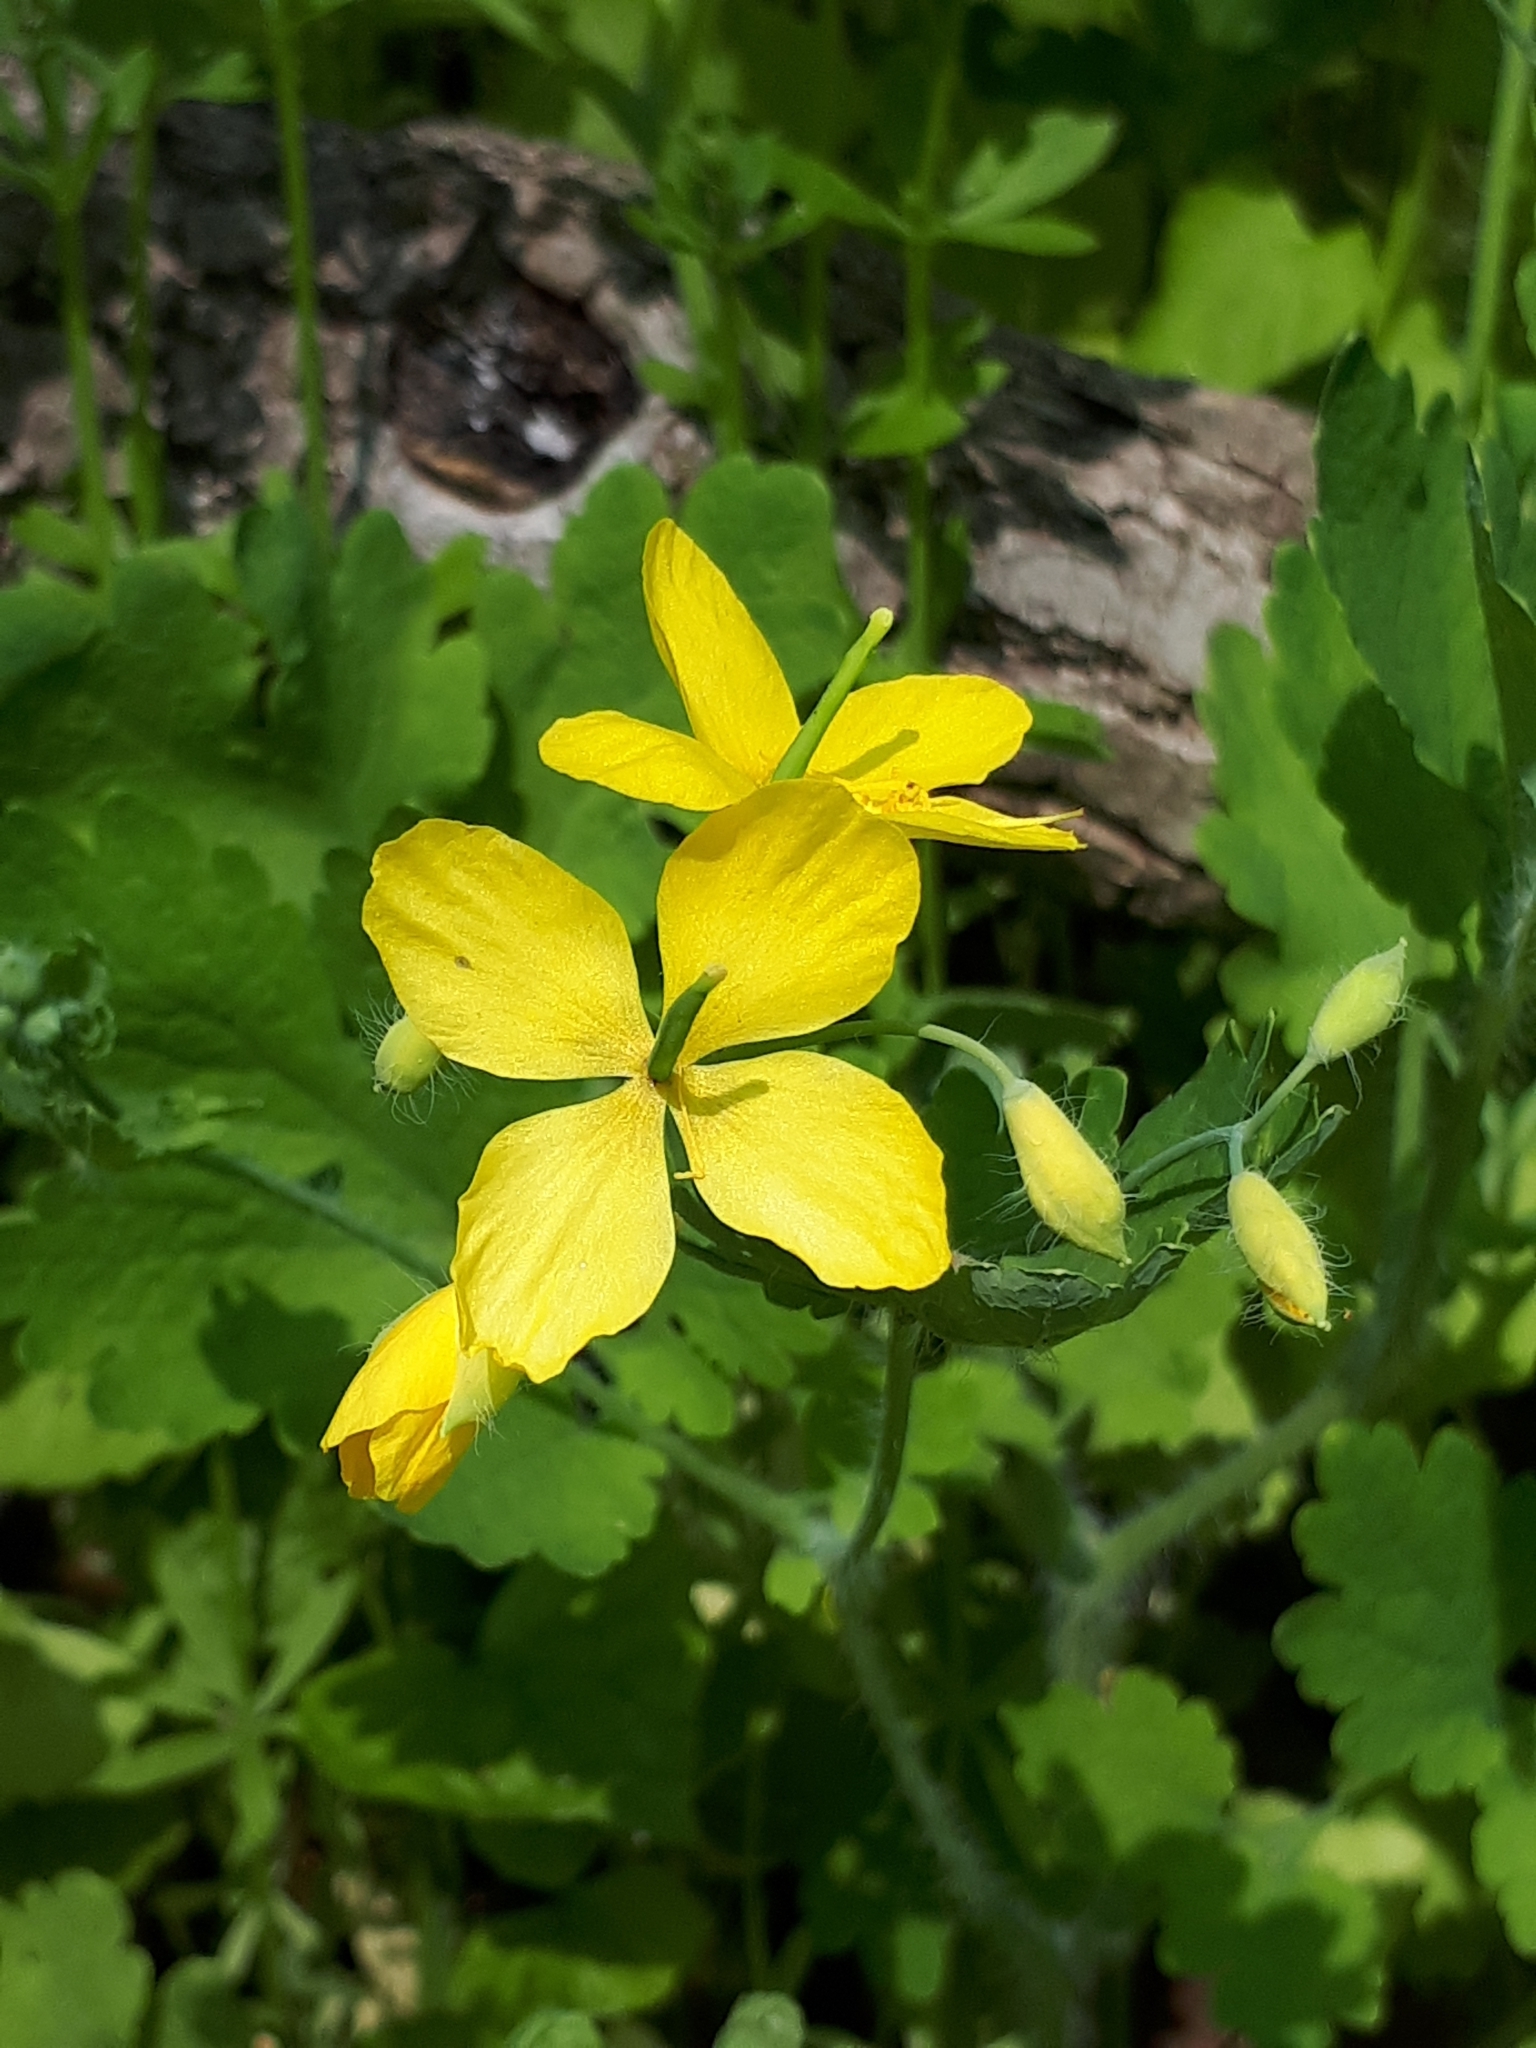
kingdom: Plantae
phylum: Tracheophyta
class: Magnoliopsida
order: Ranunculales
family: Papaveraceae
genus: Chelidonium
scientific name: Chelidonium majus
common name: Greater celandine
